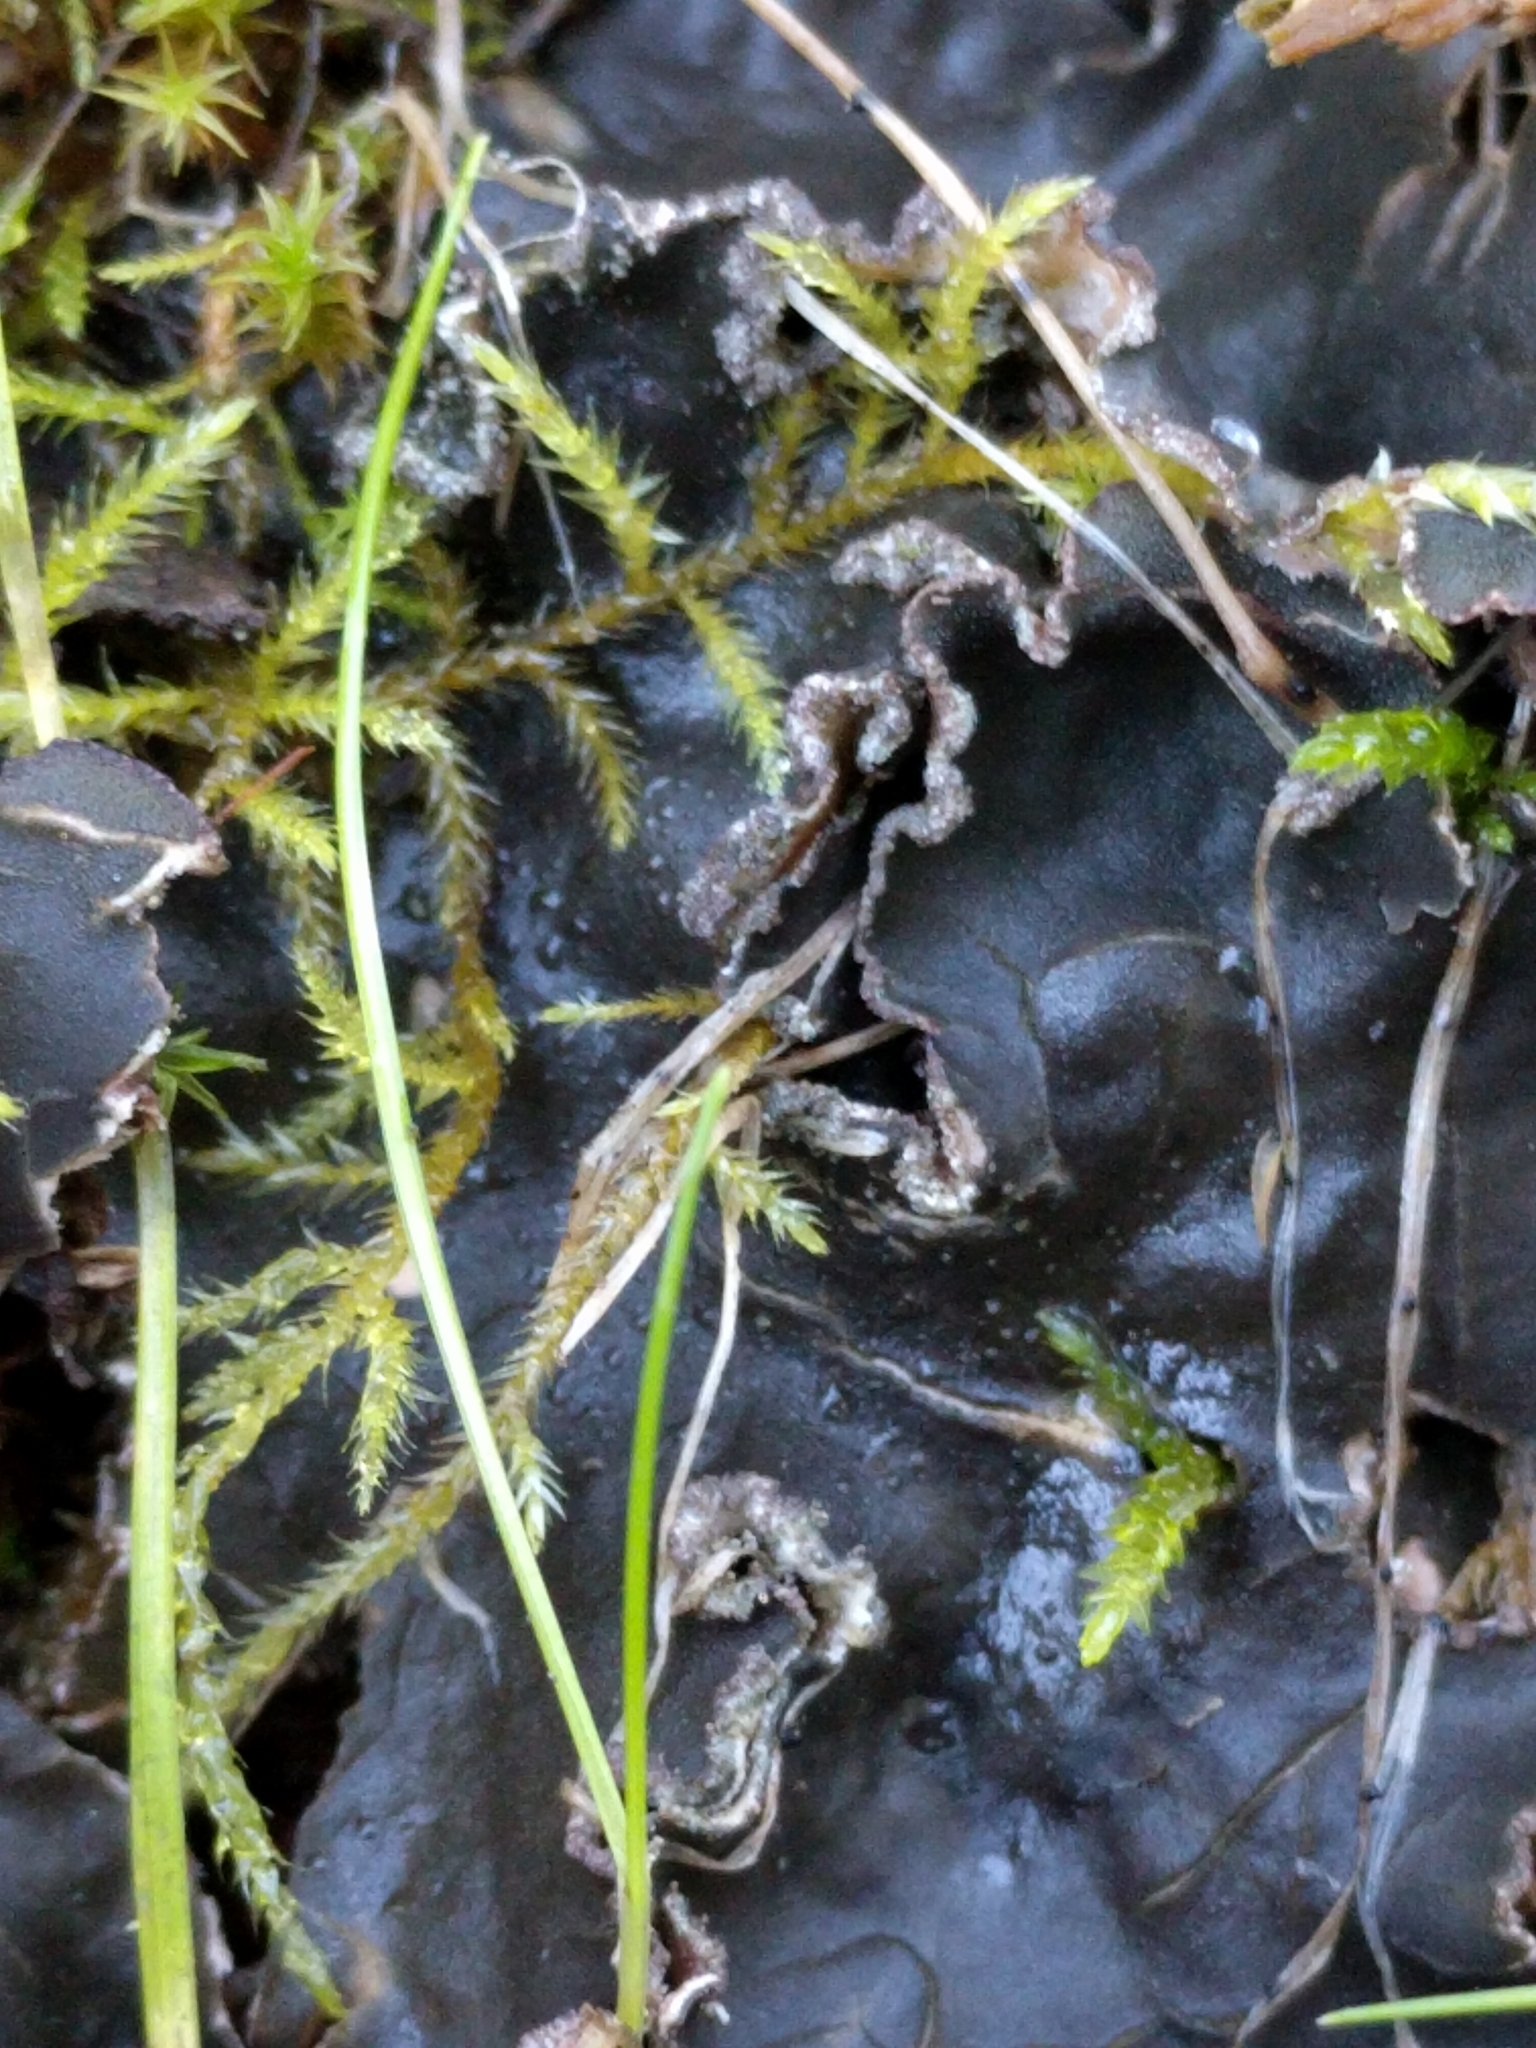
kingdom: Fungi
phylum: Ascomycota
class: Lecanoromycetes
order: Peltigerales
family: Peltigeraceae
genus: Peltigera
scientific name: Peltigera collina
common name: Gritty tree pelt lichen
